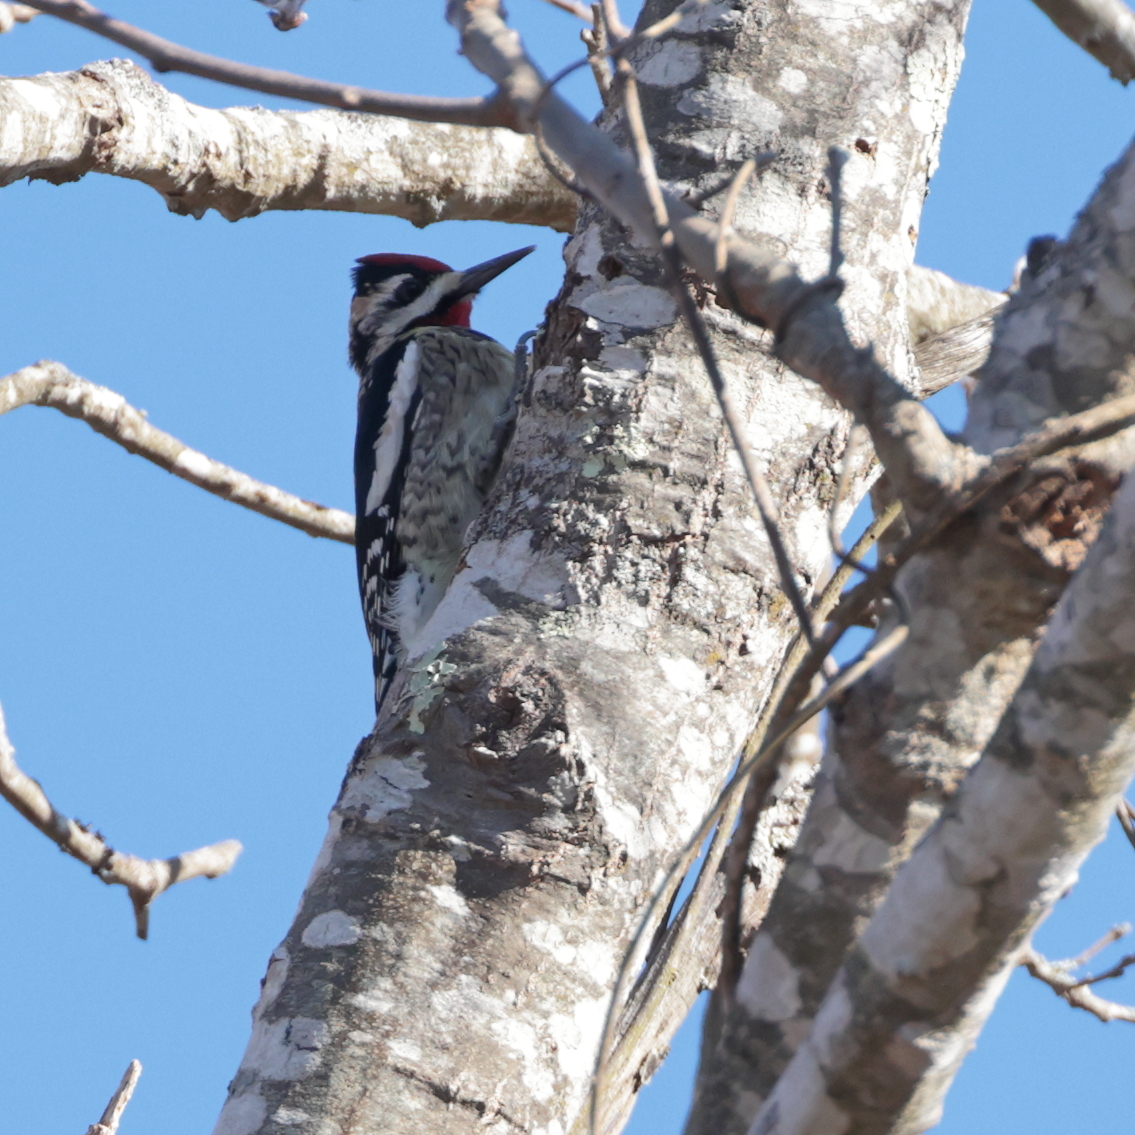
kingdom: Animalia
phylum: Chordata
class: Aves
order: Piciformes
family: Picidae
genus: Sphyrapicus
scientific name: Sphyrapicus varius
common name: Yellow-bellied sapsucker
